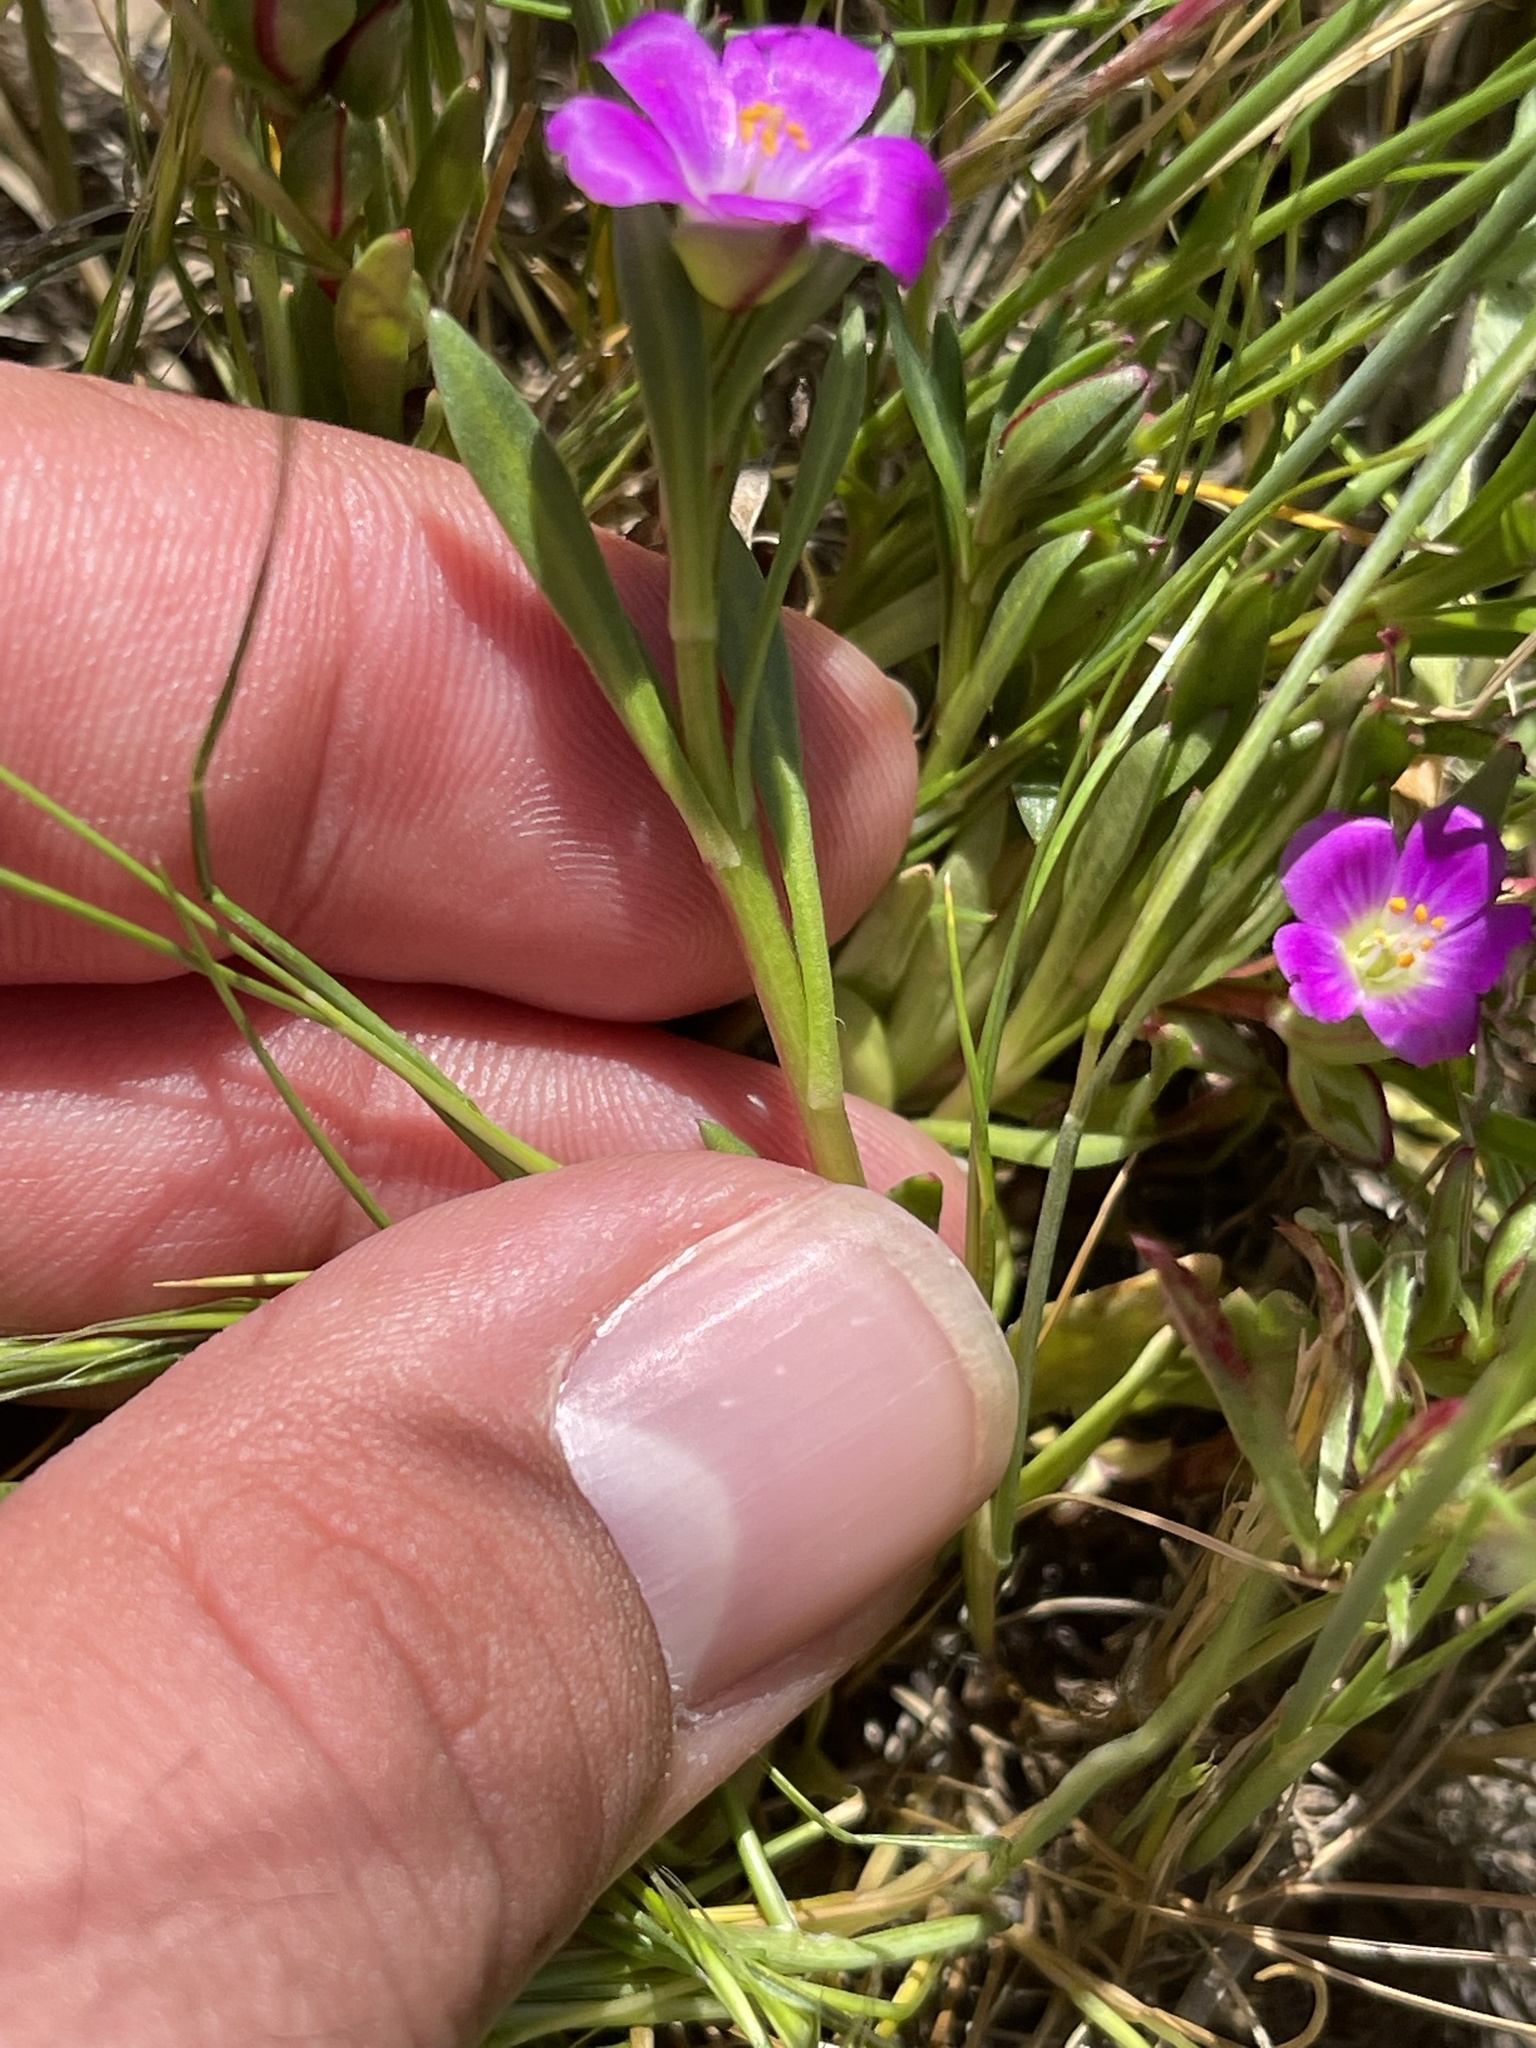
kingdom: Plantae
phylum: Tracheophyta
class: Magnoliopsida
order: Caryophyllales
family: Montiaceae
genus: Calandrinia
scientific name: Calandrinia menziesii
